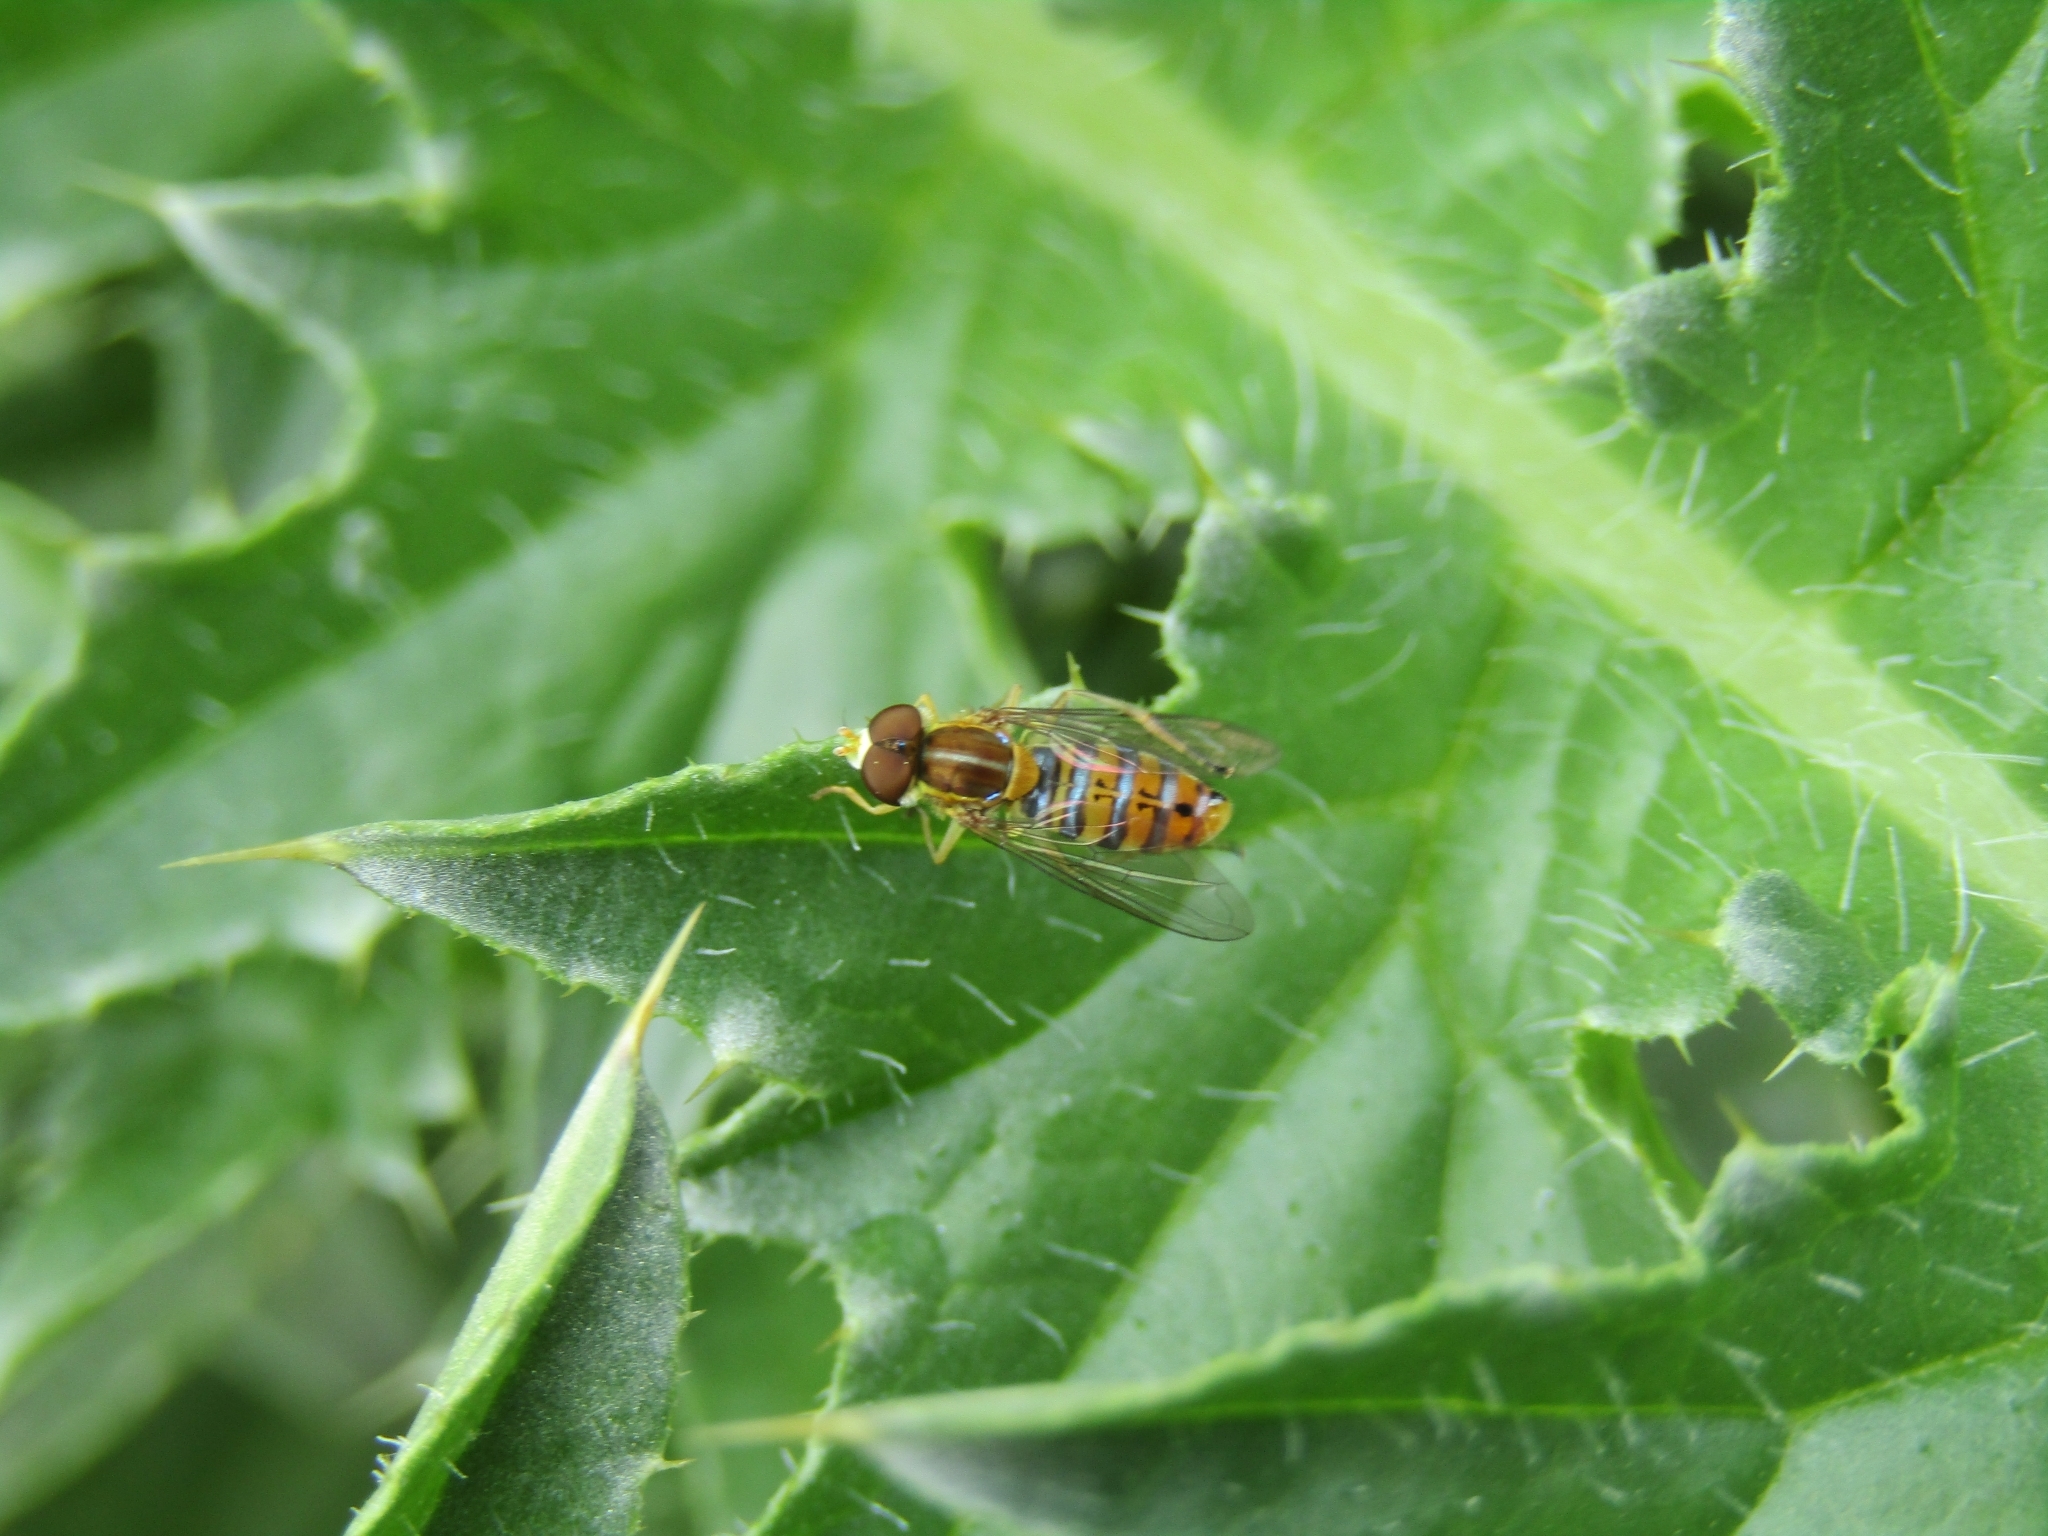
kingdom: Animalia
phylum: Arthropoda
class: Insecta
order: Diptera
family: Syrphidae
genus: Toxomerus
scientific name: Toxomerus
